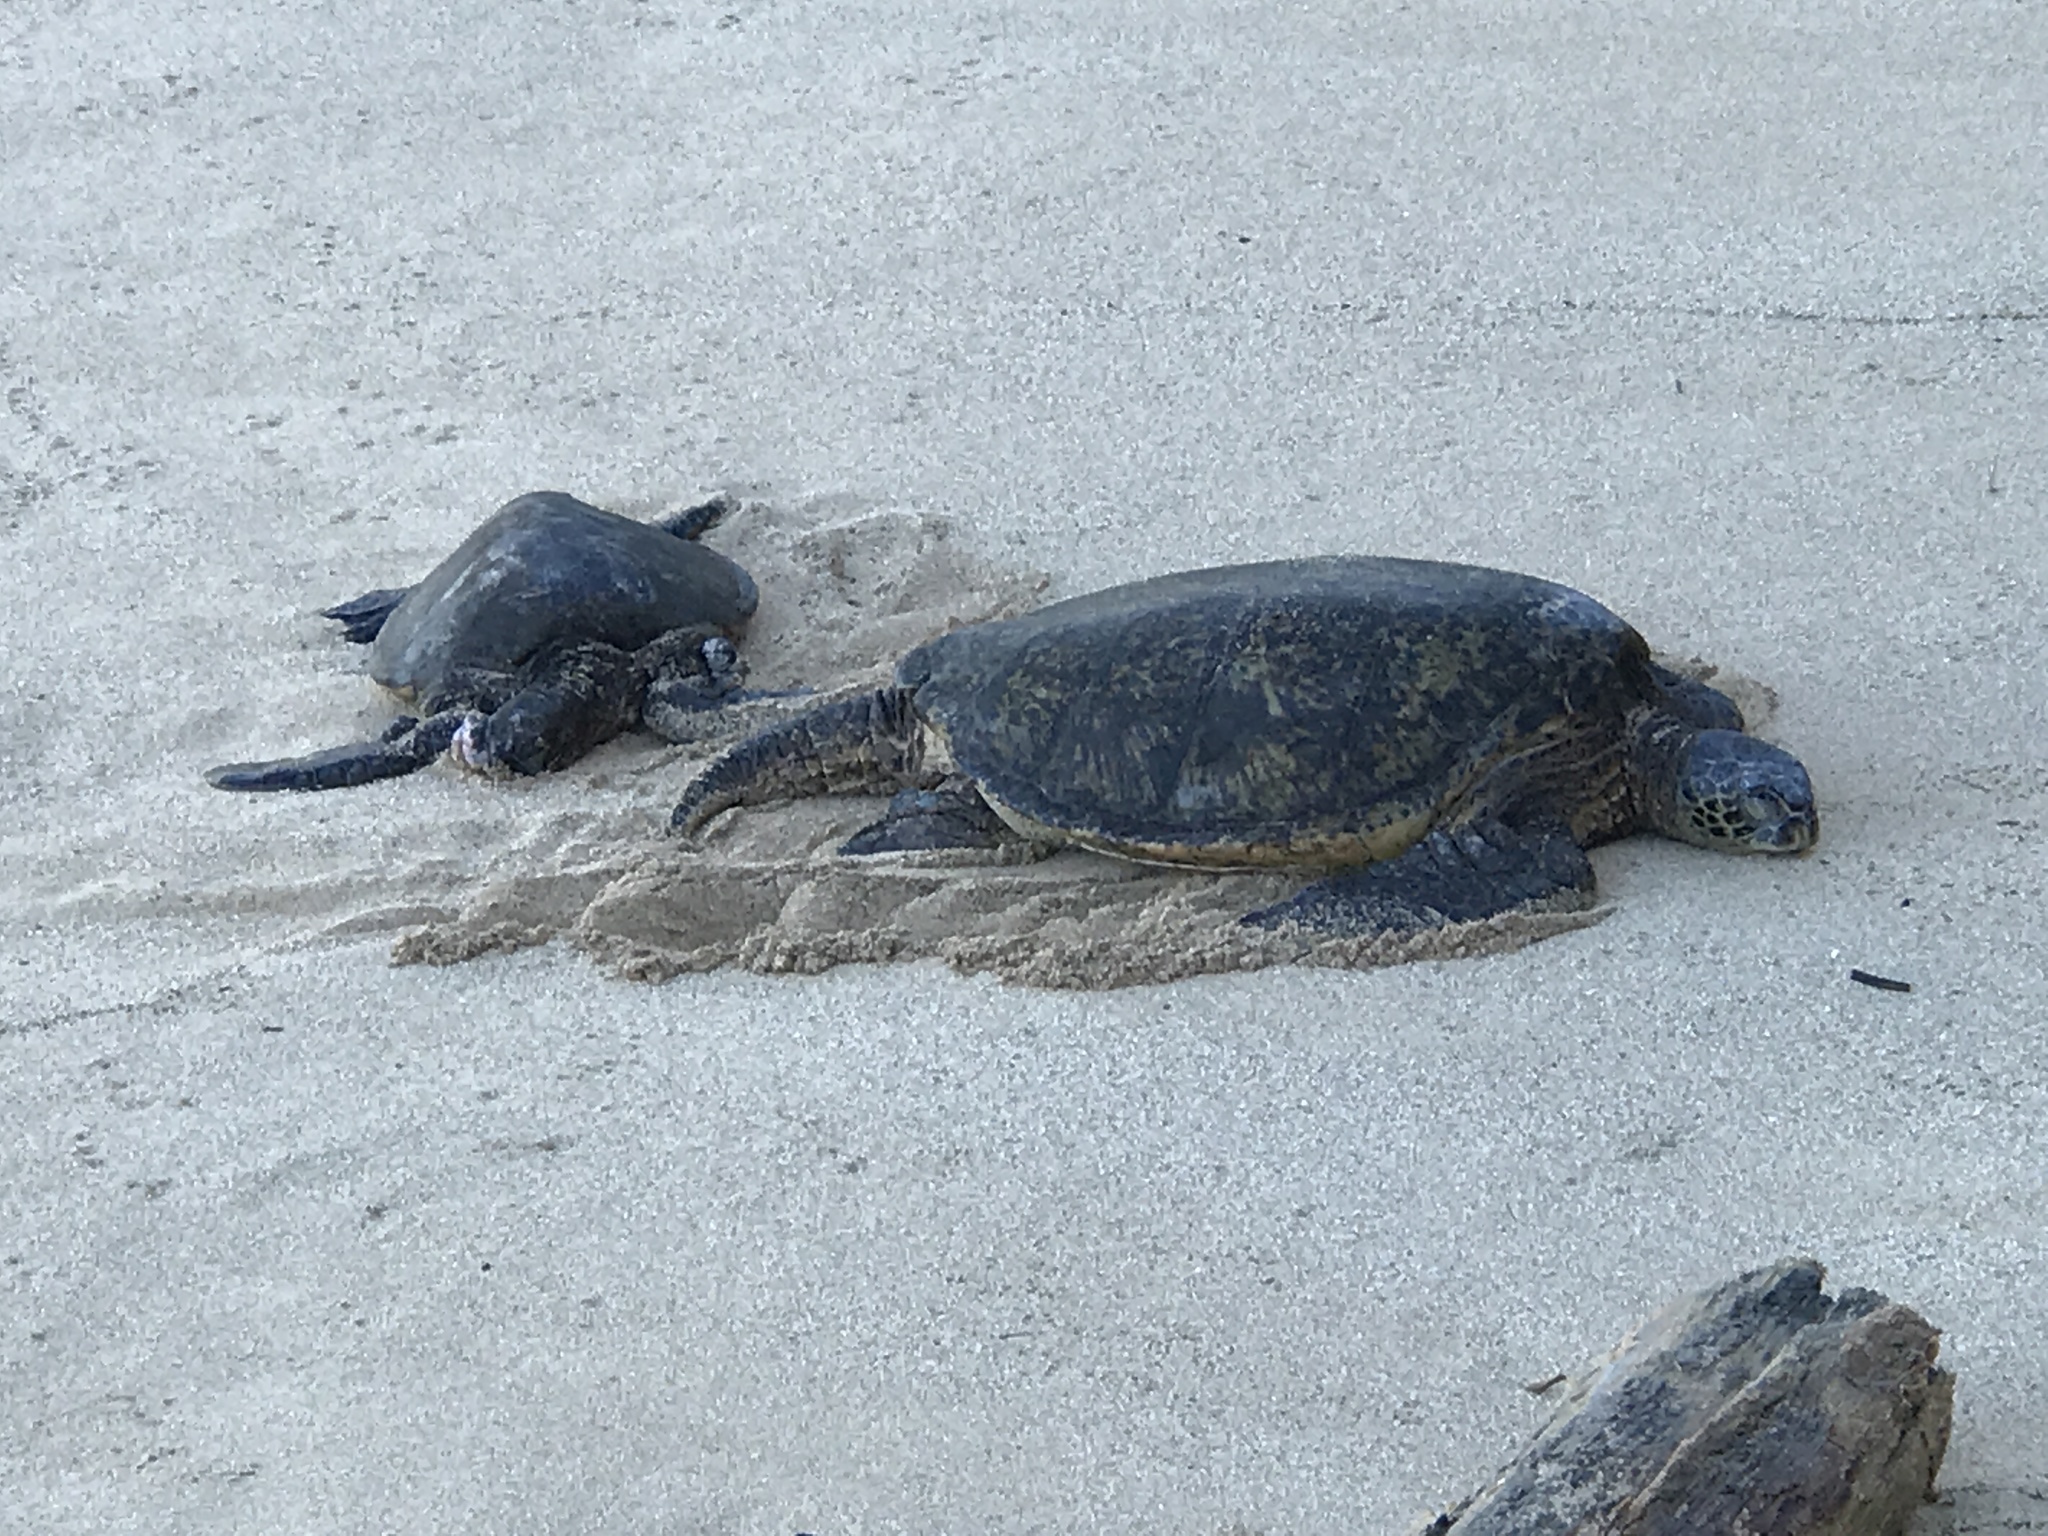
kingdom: Animalia
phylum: Chordata
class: Testudines
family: Cheloniidae
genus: Chelonia
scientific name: Chelonia mydas
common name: Green turtle
